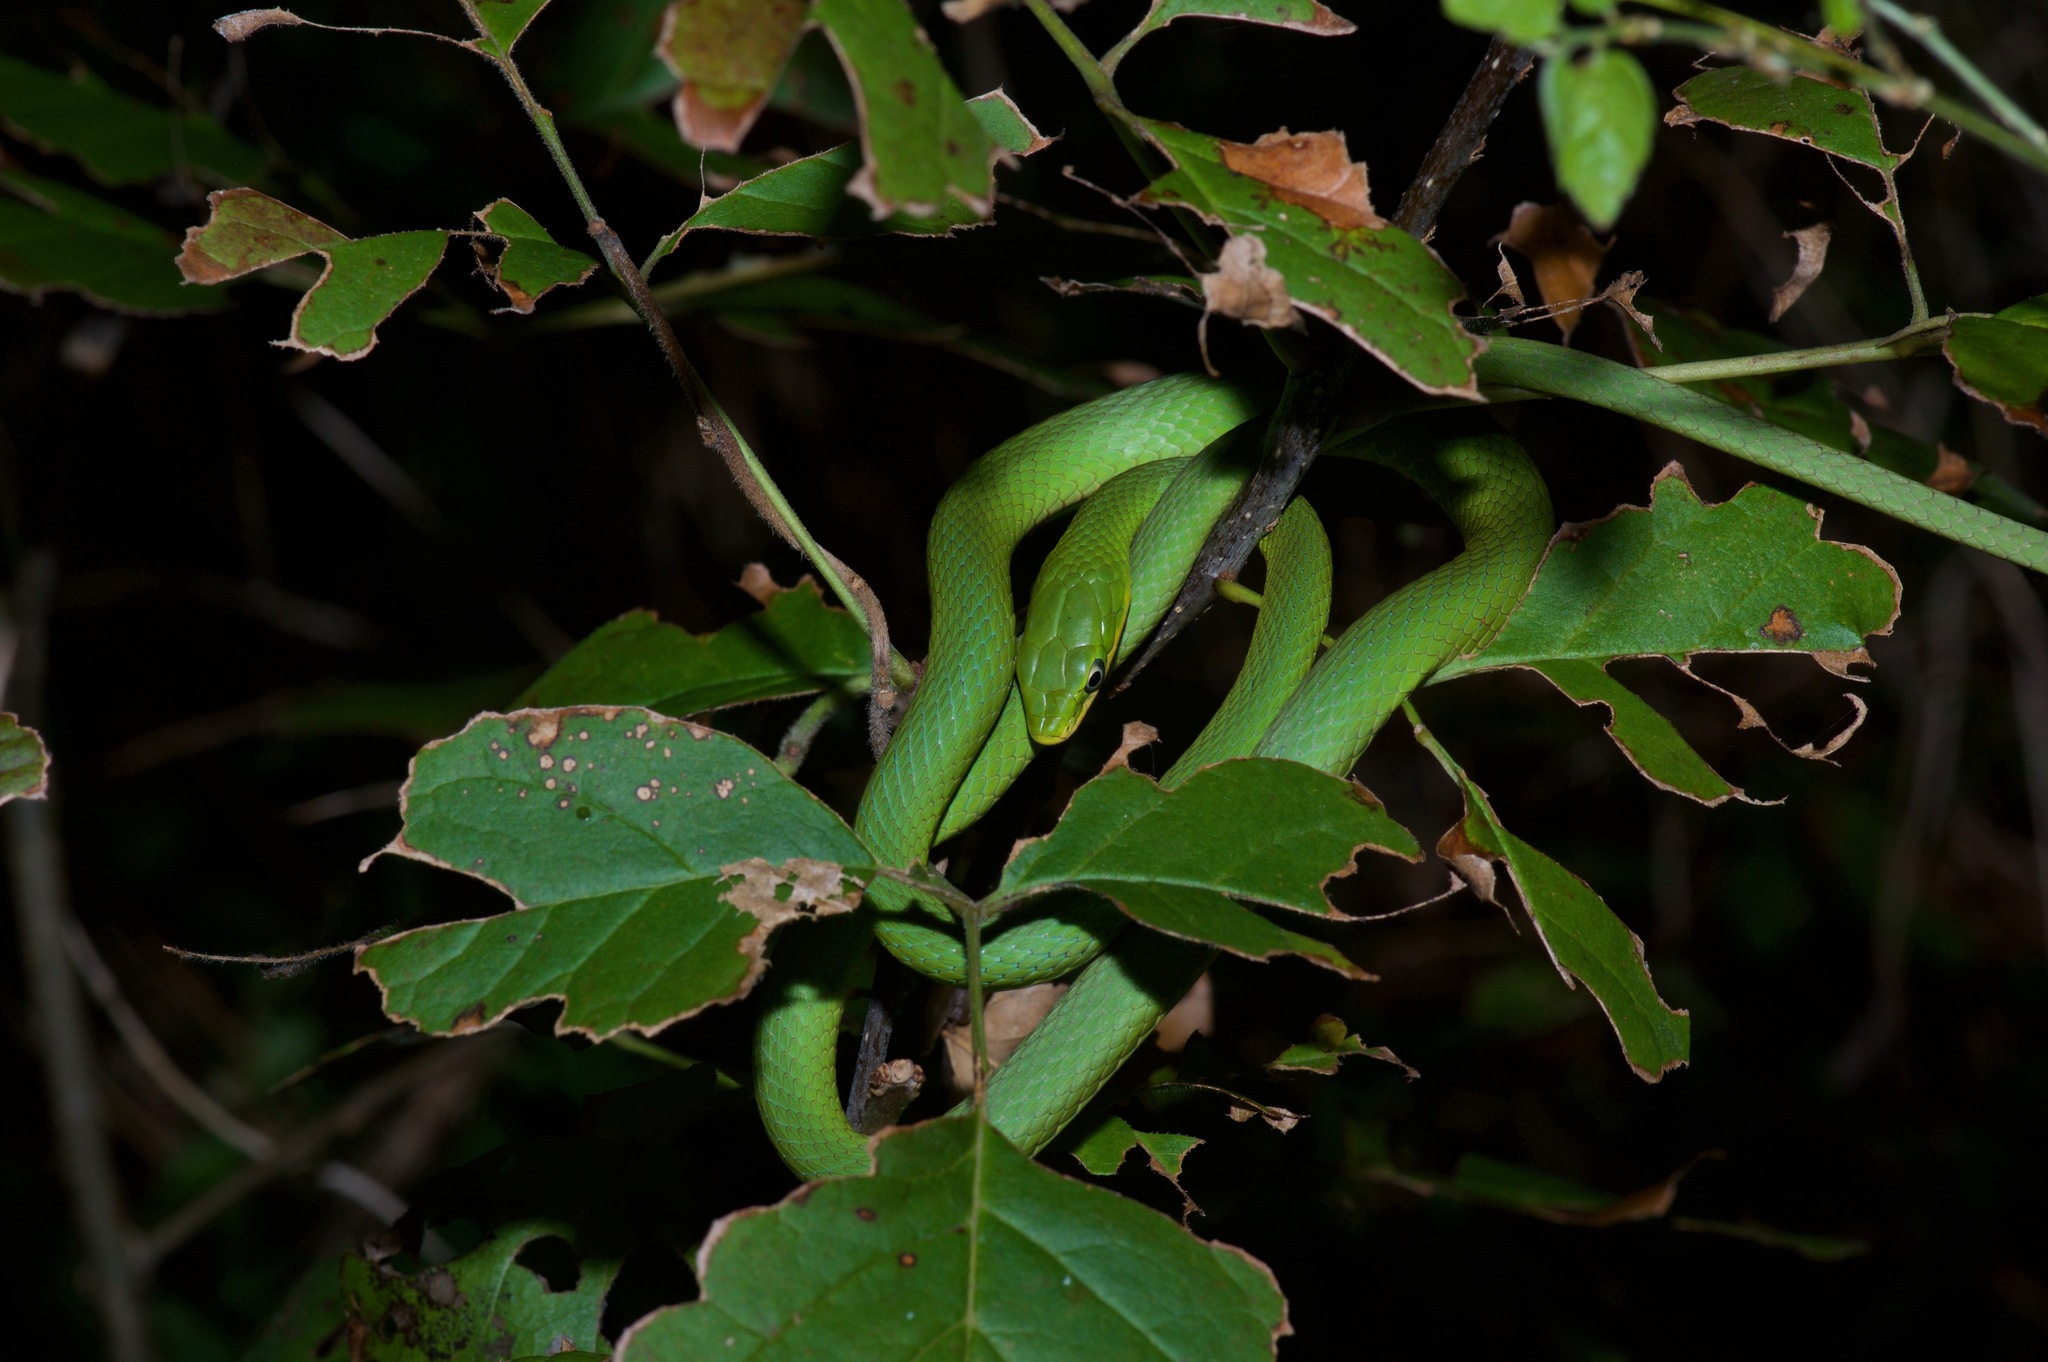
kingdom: Animalia
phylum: Chordata
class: Squamata
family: Colubridae
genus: Opheodrys
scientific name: Opheodrys aestivus
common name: Rough greensnake
